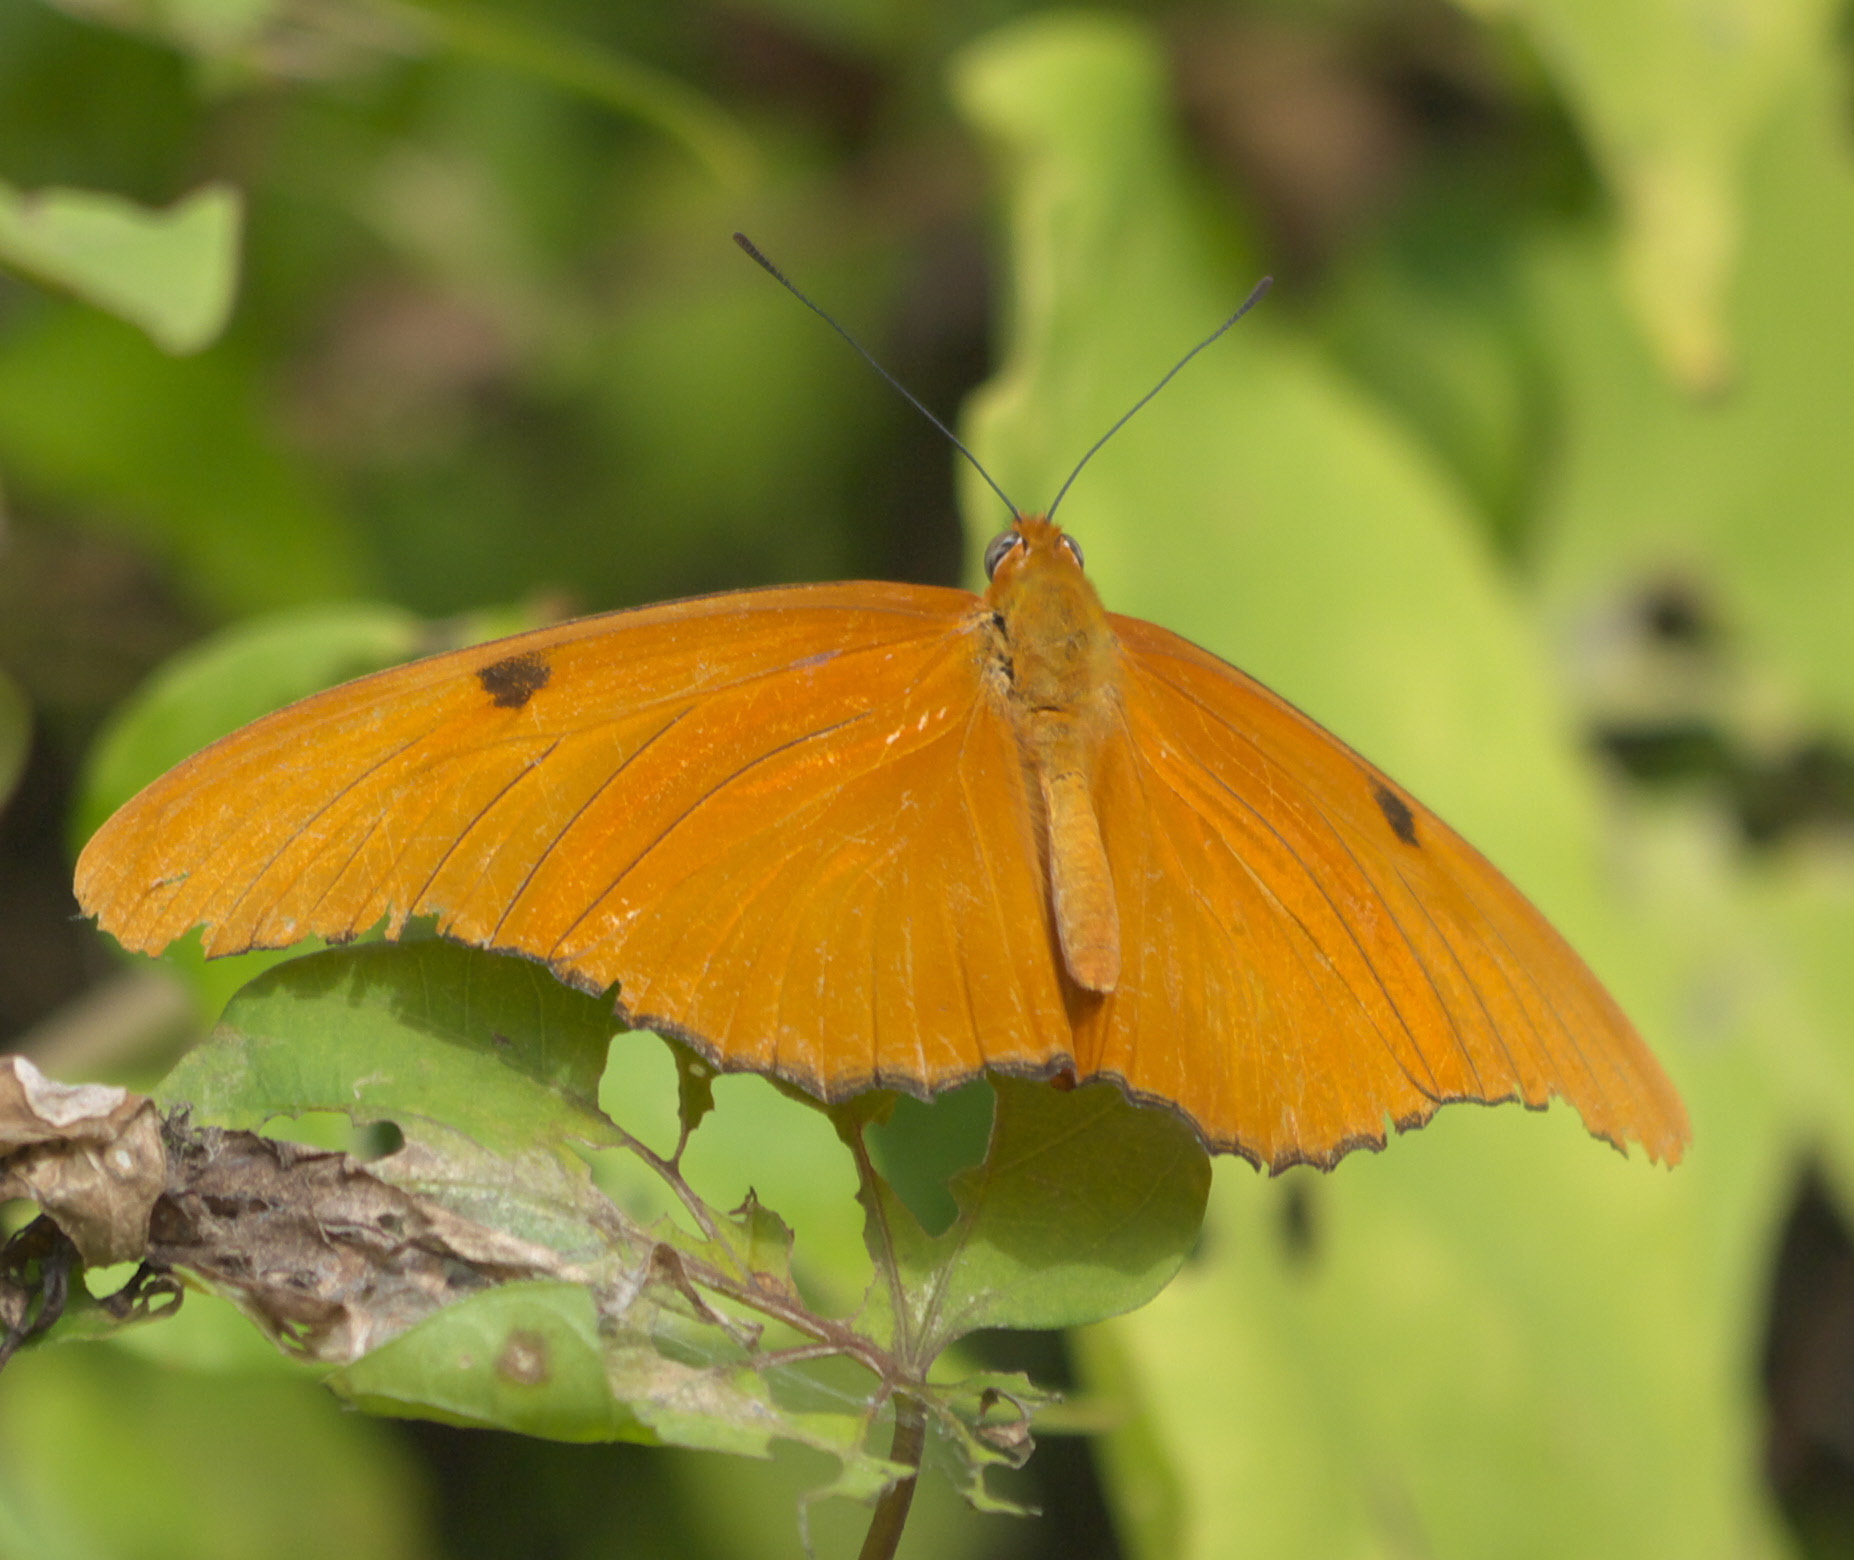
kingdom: Animalia
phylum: Arthropoda
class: Insecta
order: Lepidoptera
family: Nymphalidae
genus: Dryas
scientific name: Dryas iulia
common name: Flambeau
